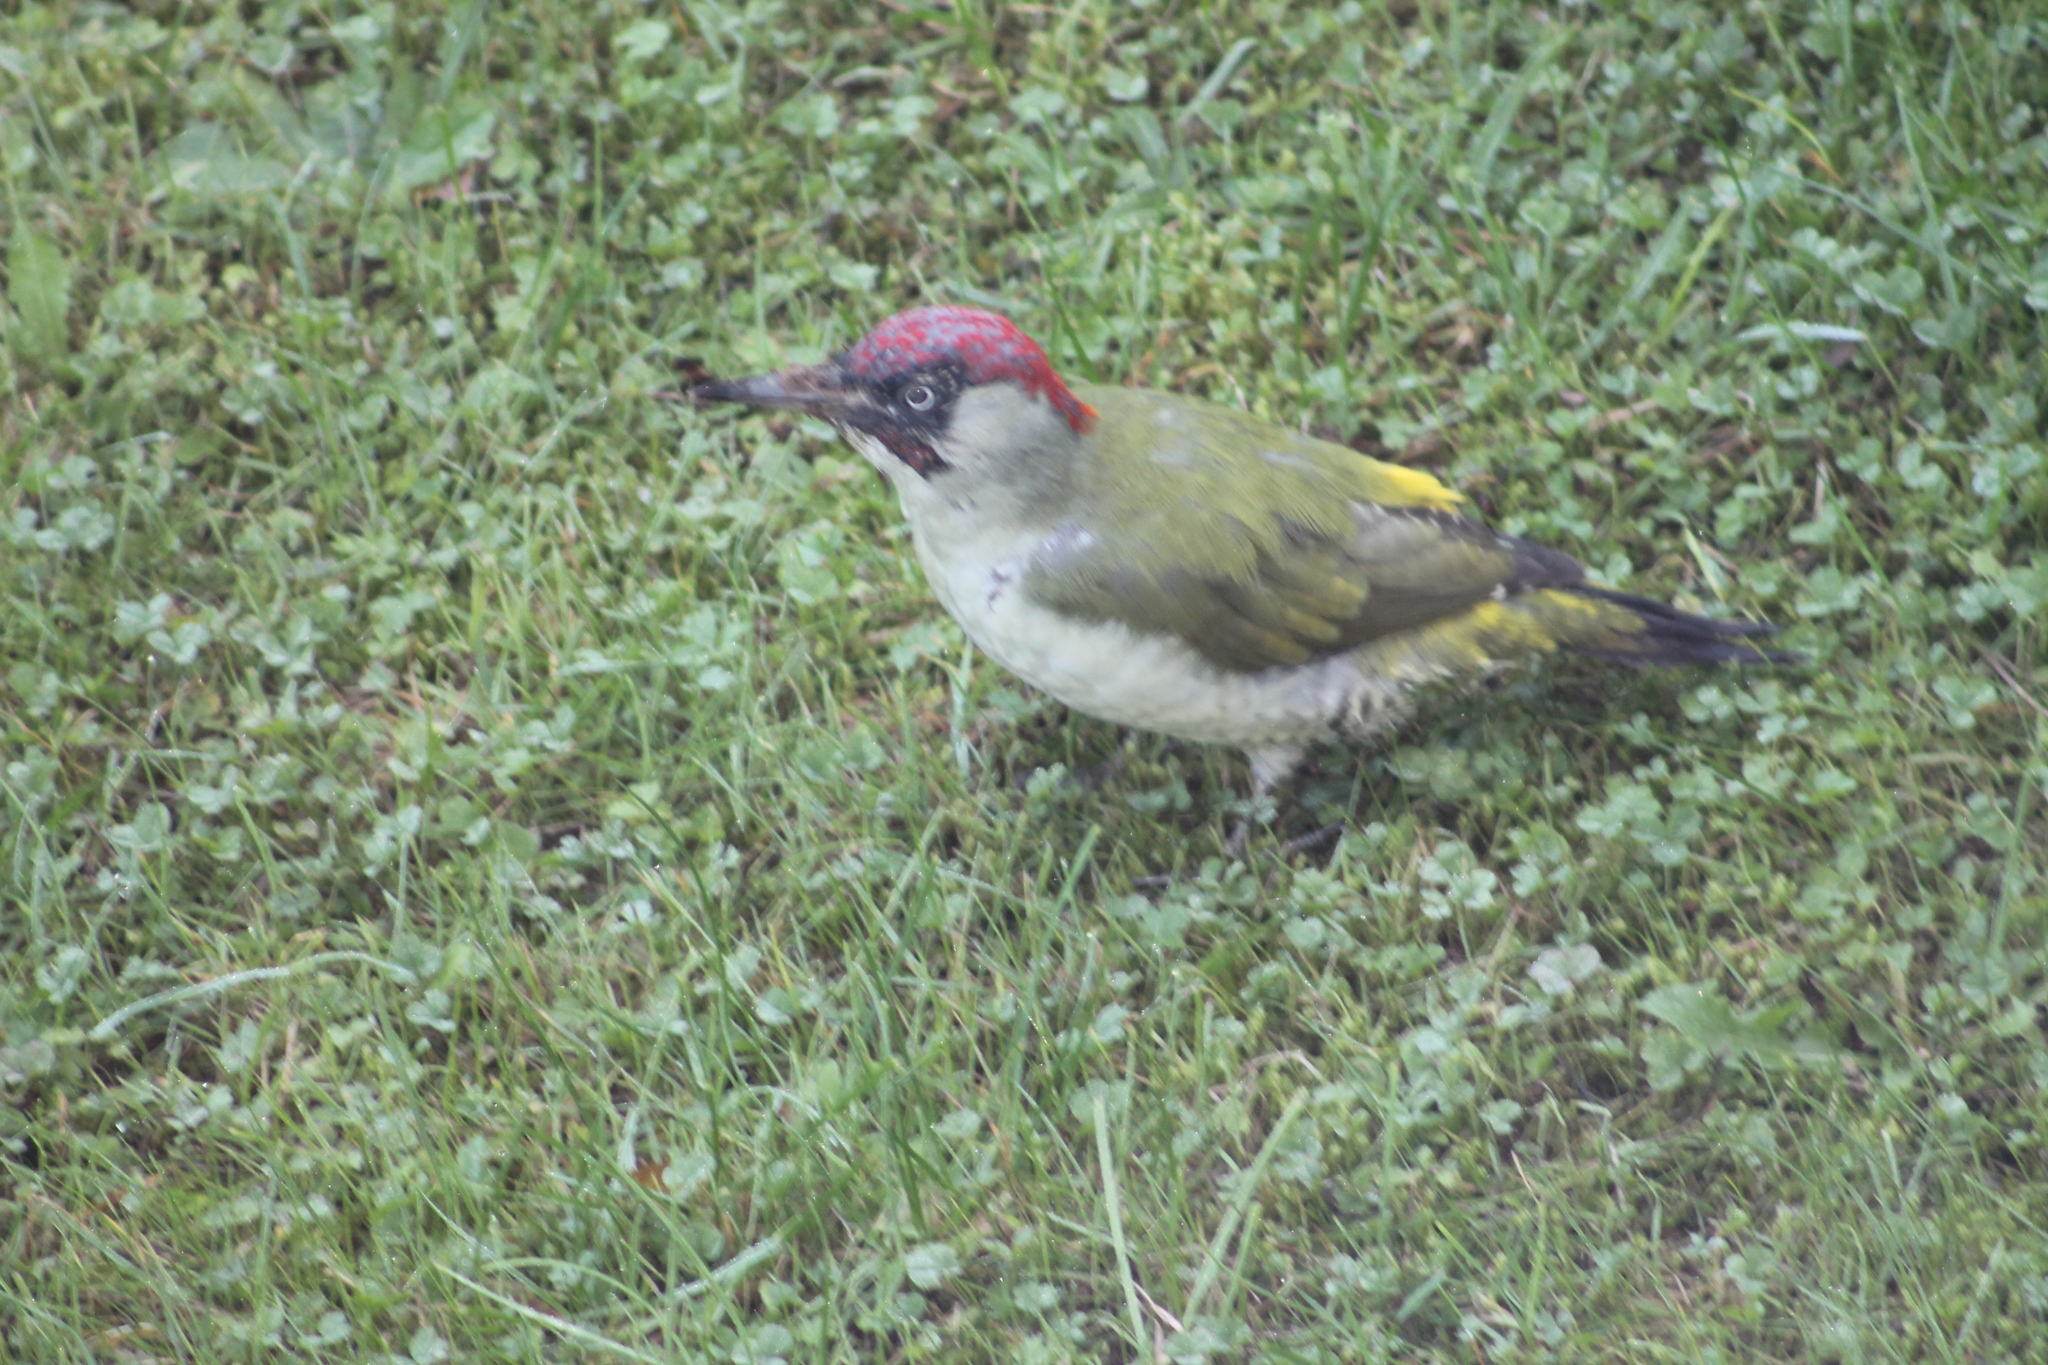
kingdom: Animalia
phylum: Chordata
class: Aves
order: Piciformes
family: Picidae
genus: Picus
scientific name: Picus viridis
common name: European green woodpecker
